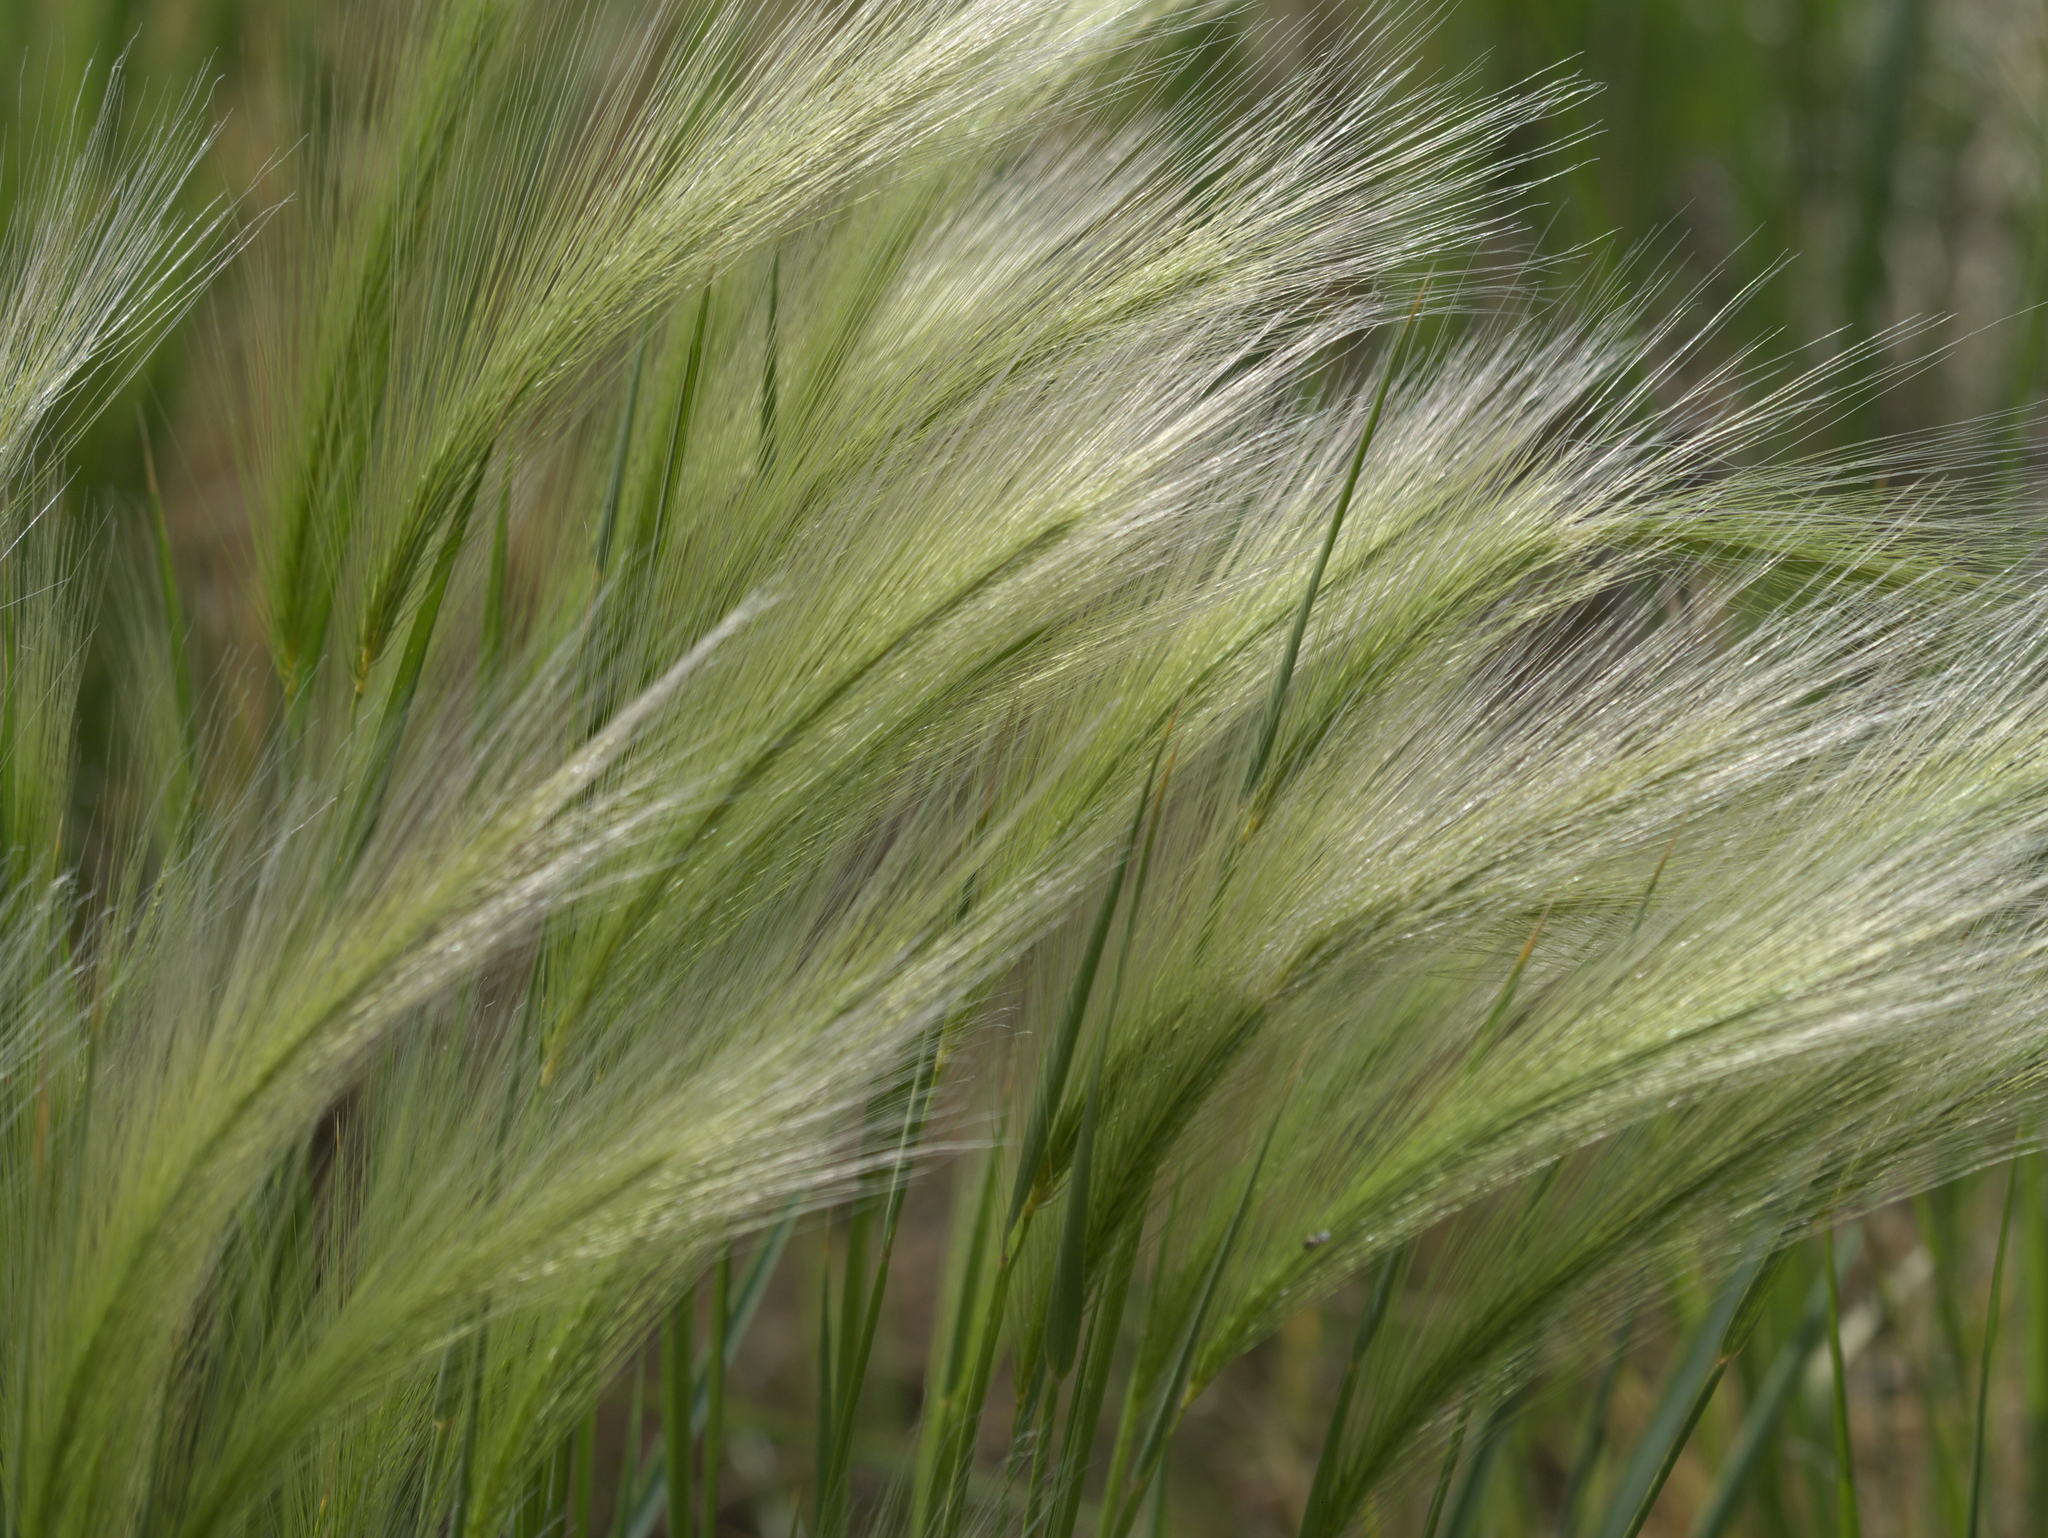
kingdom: Plantae
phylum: Tracheophyta
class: Liliopsida
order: Poales
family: Poaceae
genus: Hordeum
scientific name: Hordeum jubatum
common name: Foxtail barley
